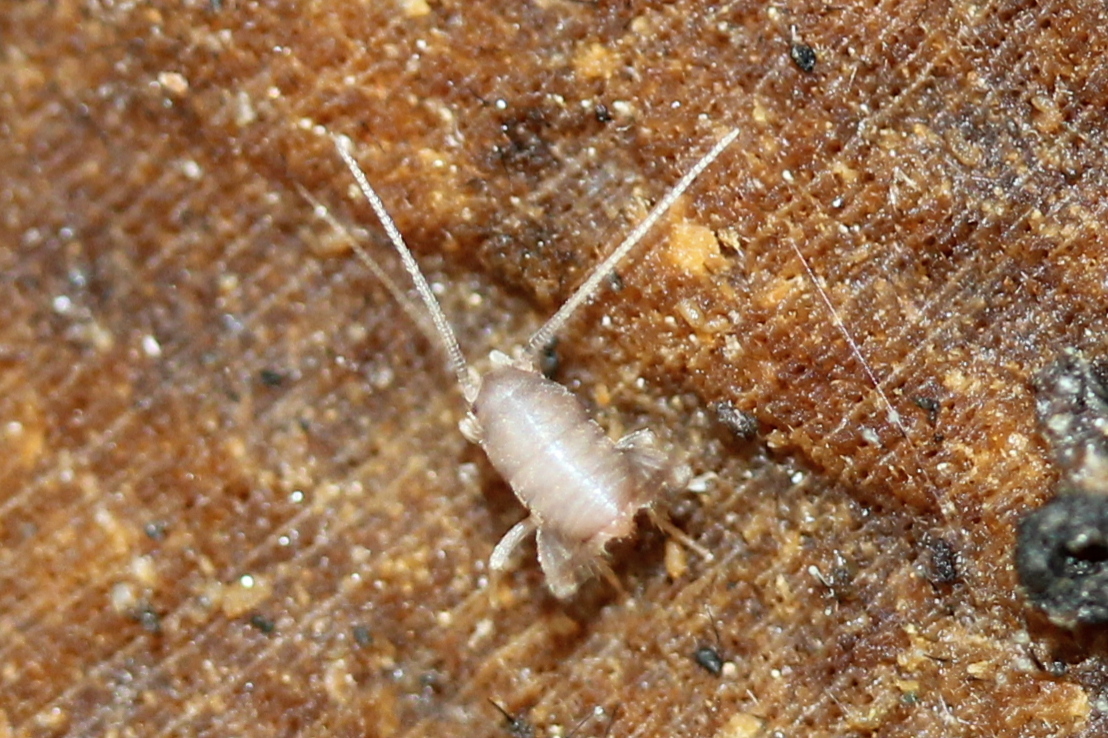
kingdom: Animalia
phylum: Arthropoda
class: Insecta
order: Orthoptera
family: Myrmecophilidae
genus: Myrmecophilus
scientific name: Myrmecophilus pergandei
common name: Eastern ant cricket
